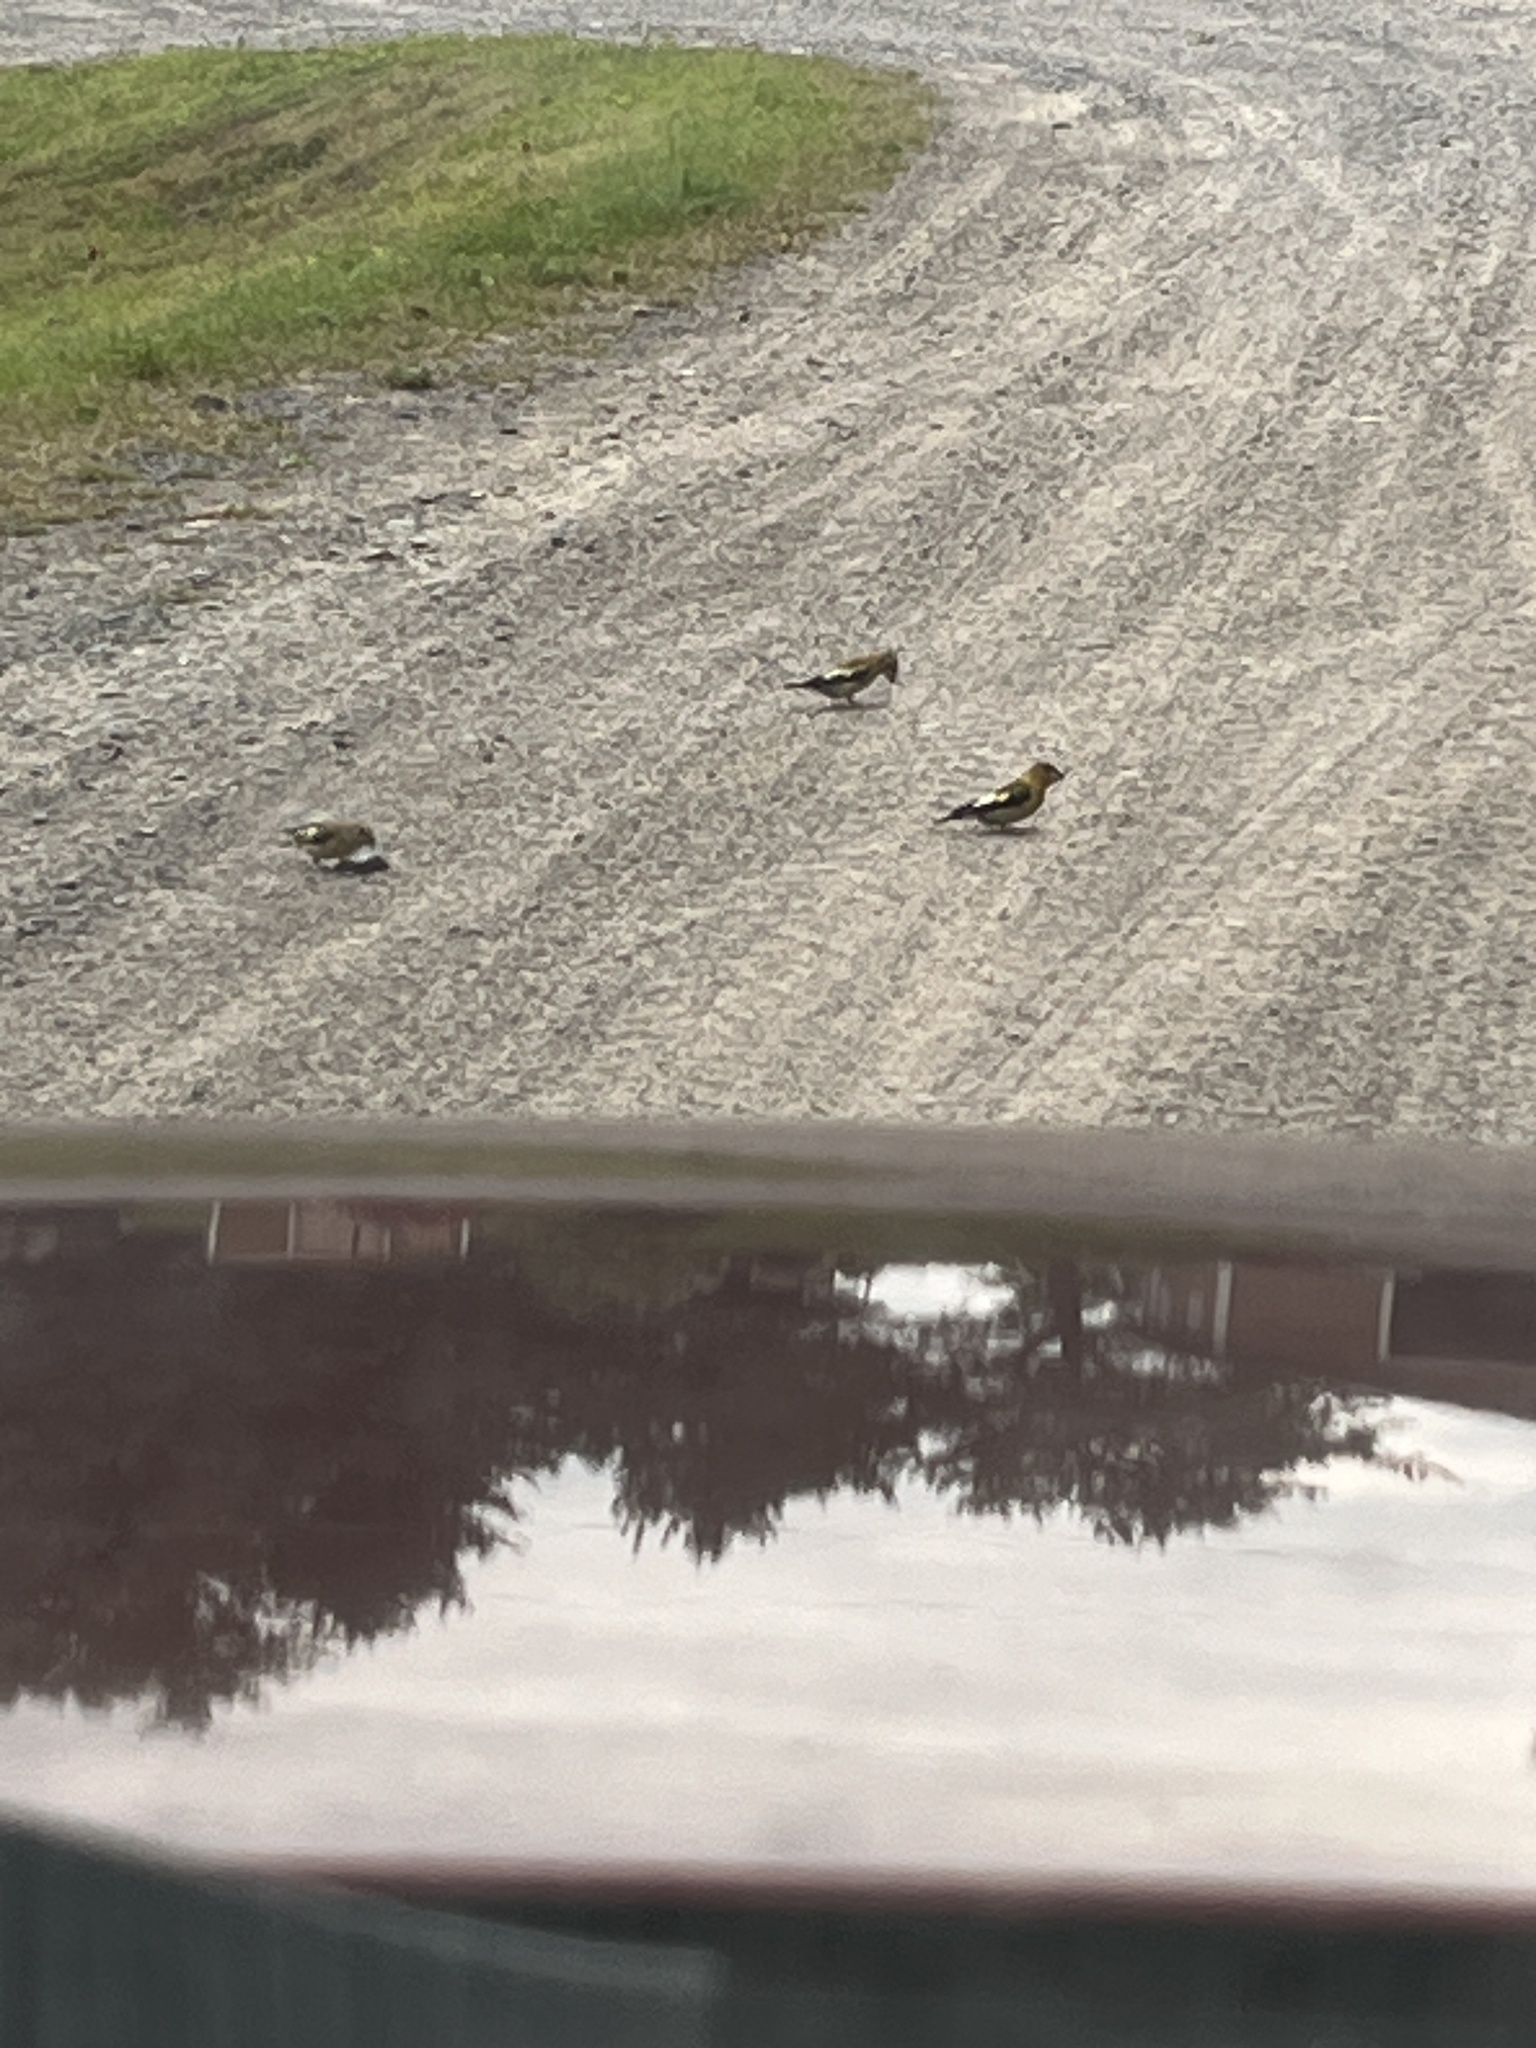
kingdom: Animalia
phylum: Chordata
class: Aves
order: Passeriformes
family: Fringillidae
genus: Hesperiphona
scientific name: Hesperiphona vespertina
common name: Evening grosbeak
